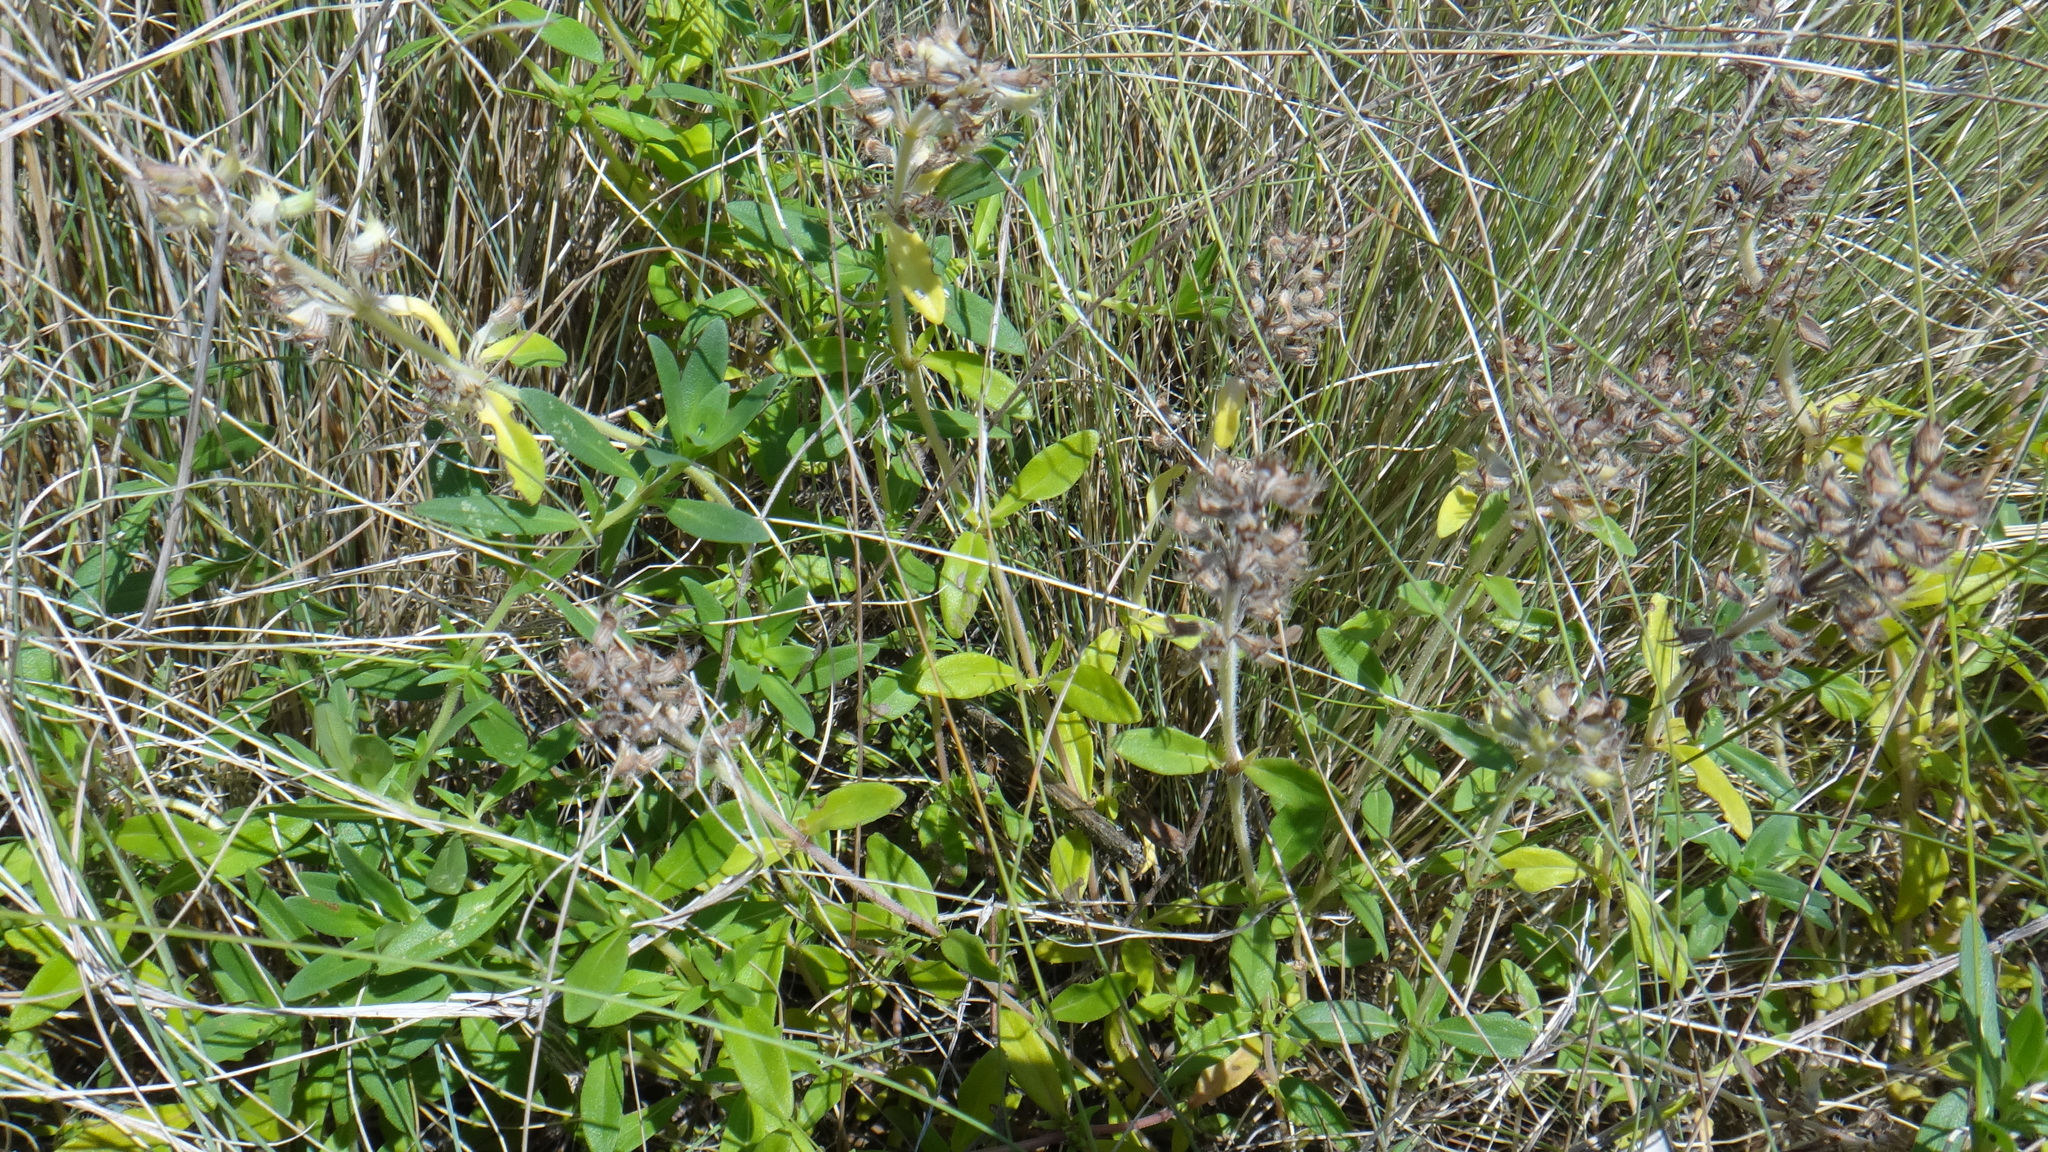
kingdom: Plantae
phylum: Tracheophyta
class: Magnoliopsida
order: Lamiales
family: Lamiaceae
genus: Thymus
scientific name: Thymus pannonicus
